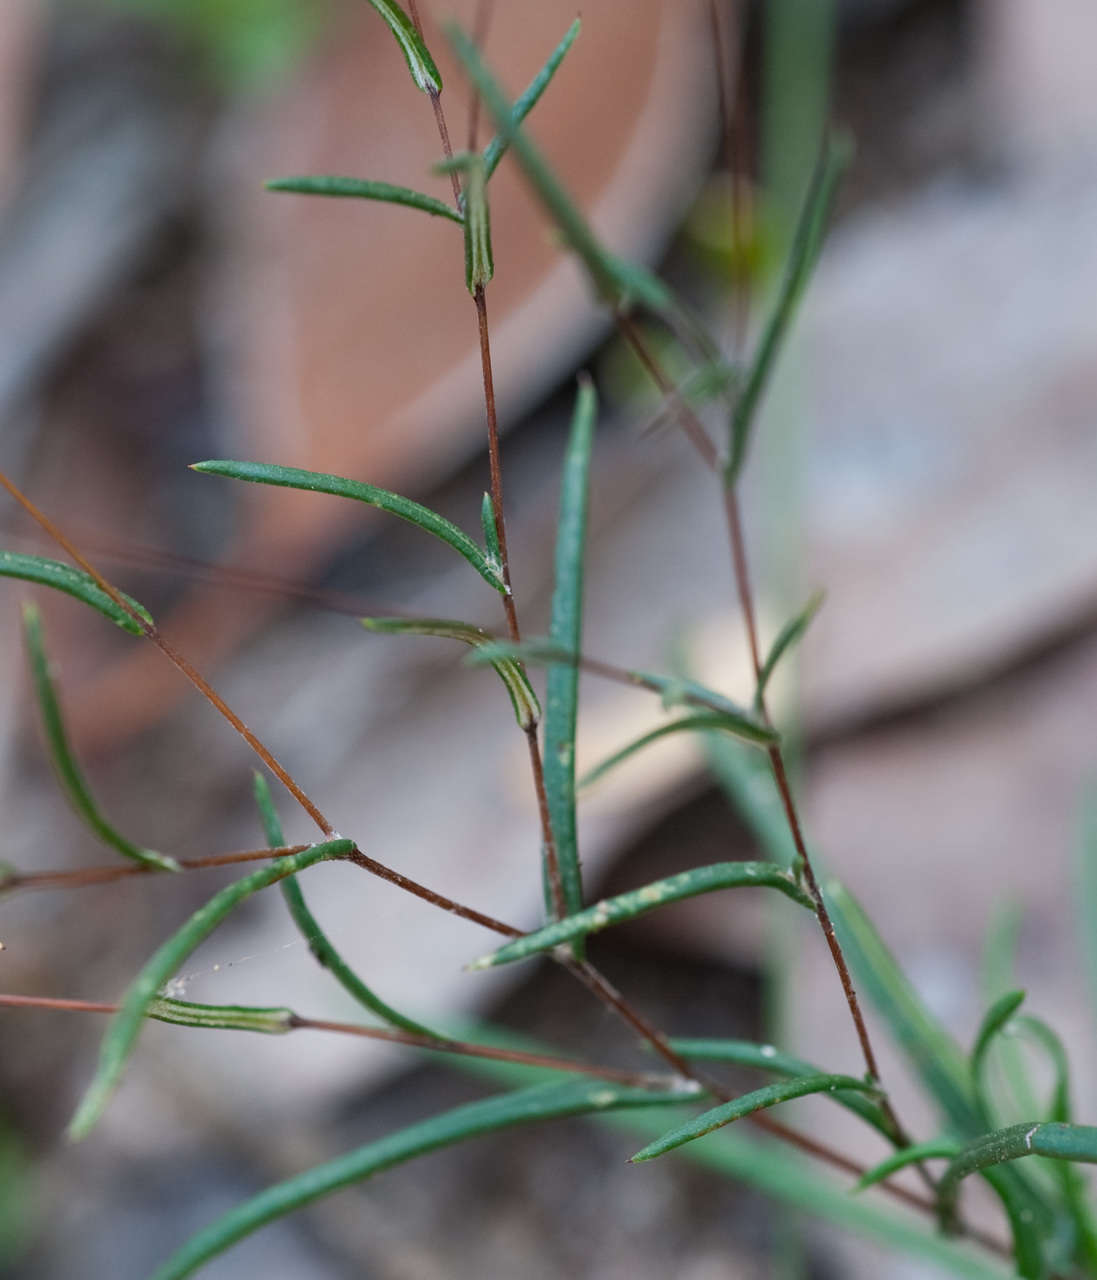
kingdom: Plantae
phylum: Tracheophyta
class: Magnoliopsida
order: Asterales
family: Asteraceae
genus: Leptorhynchos
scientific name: Leptorhynchos tenuifolius
